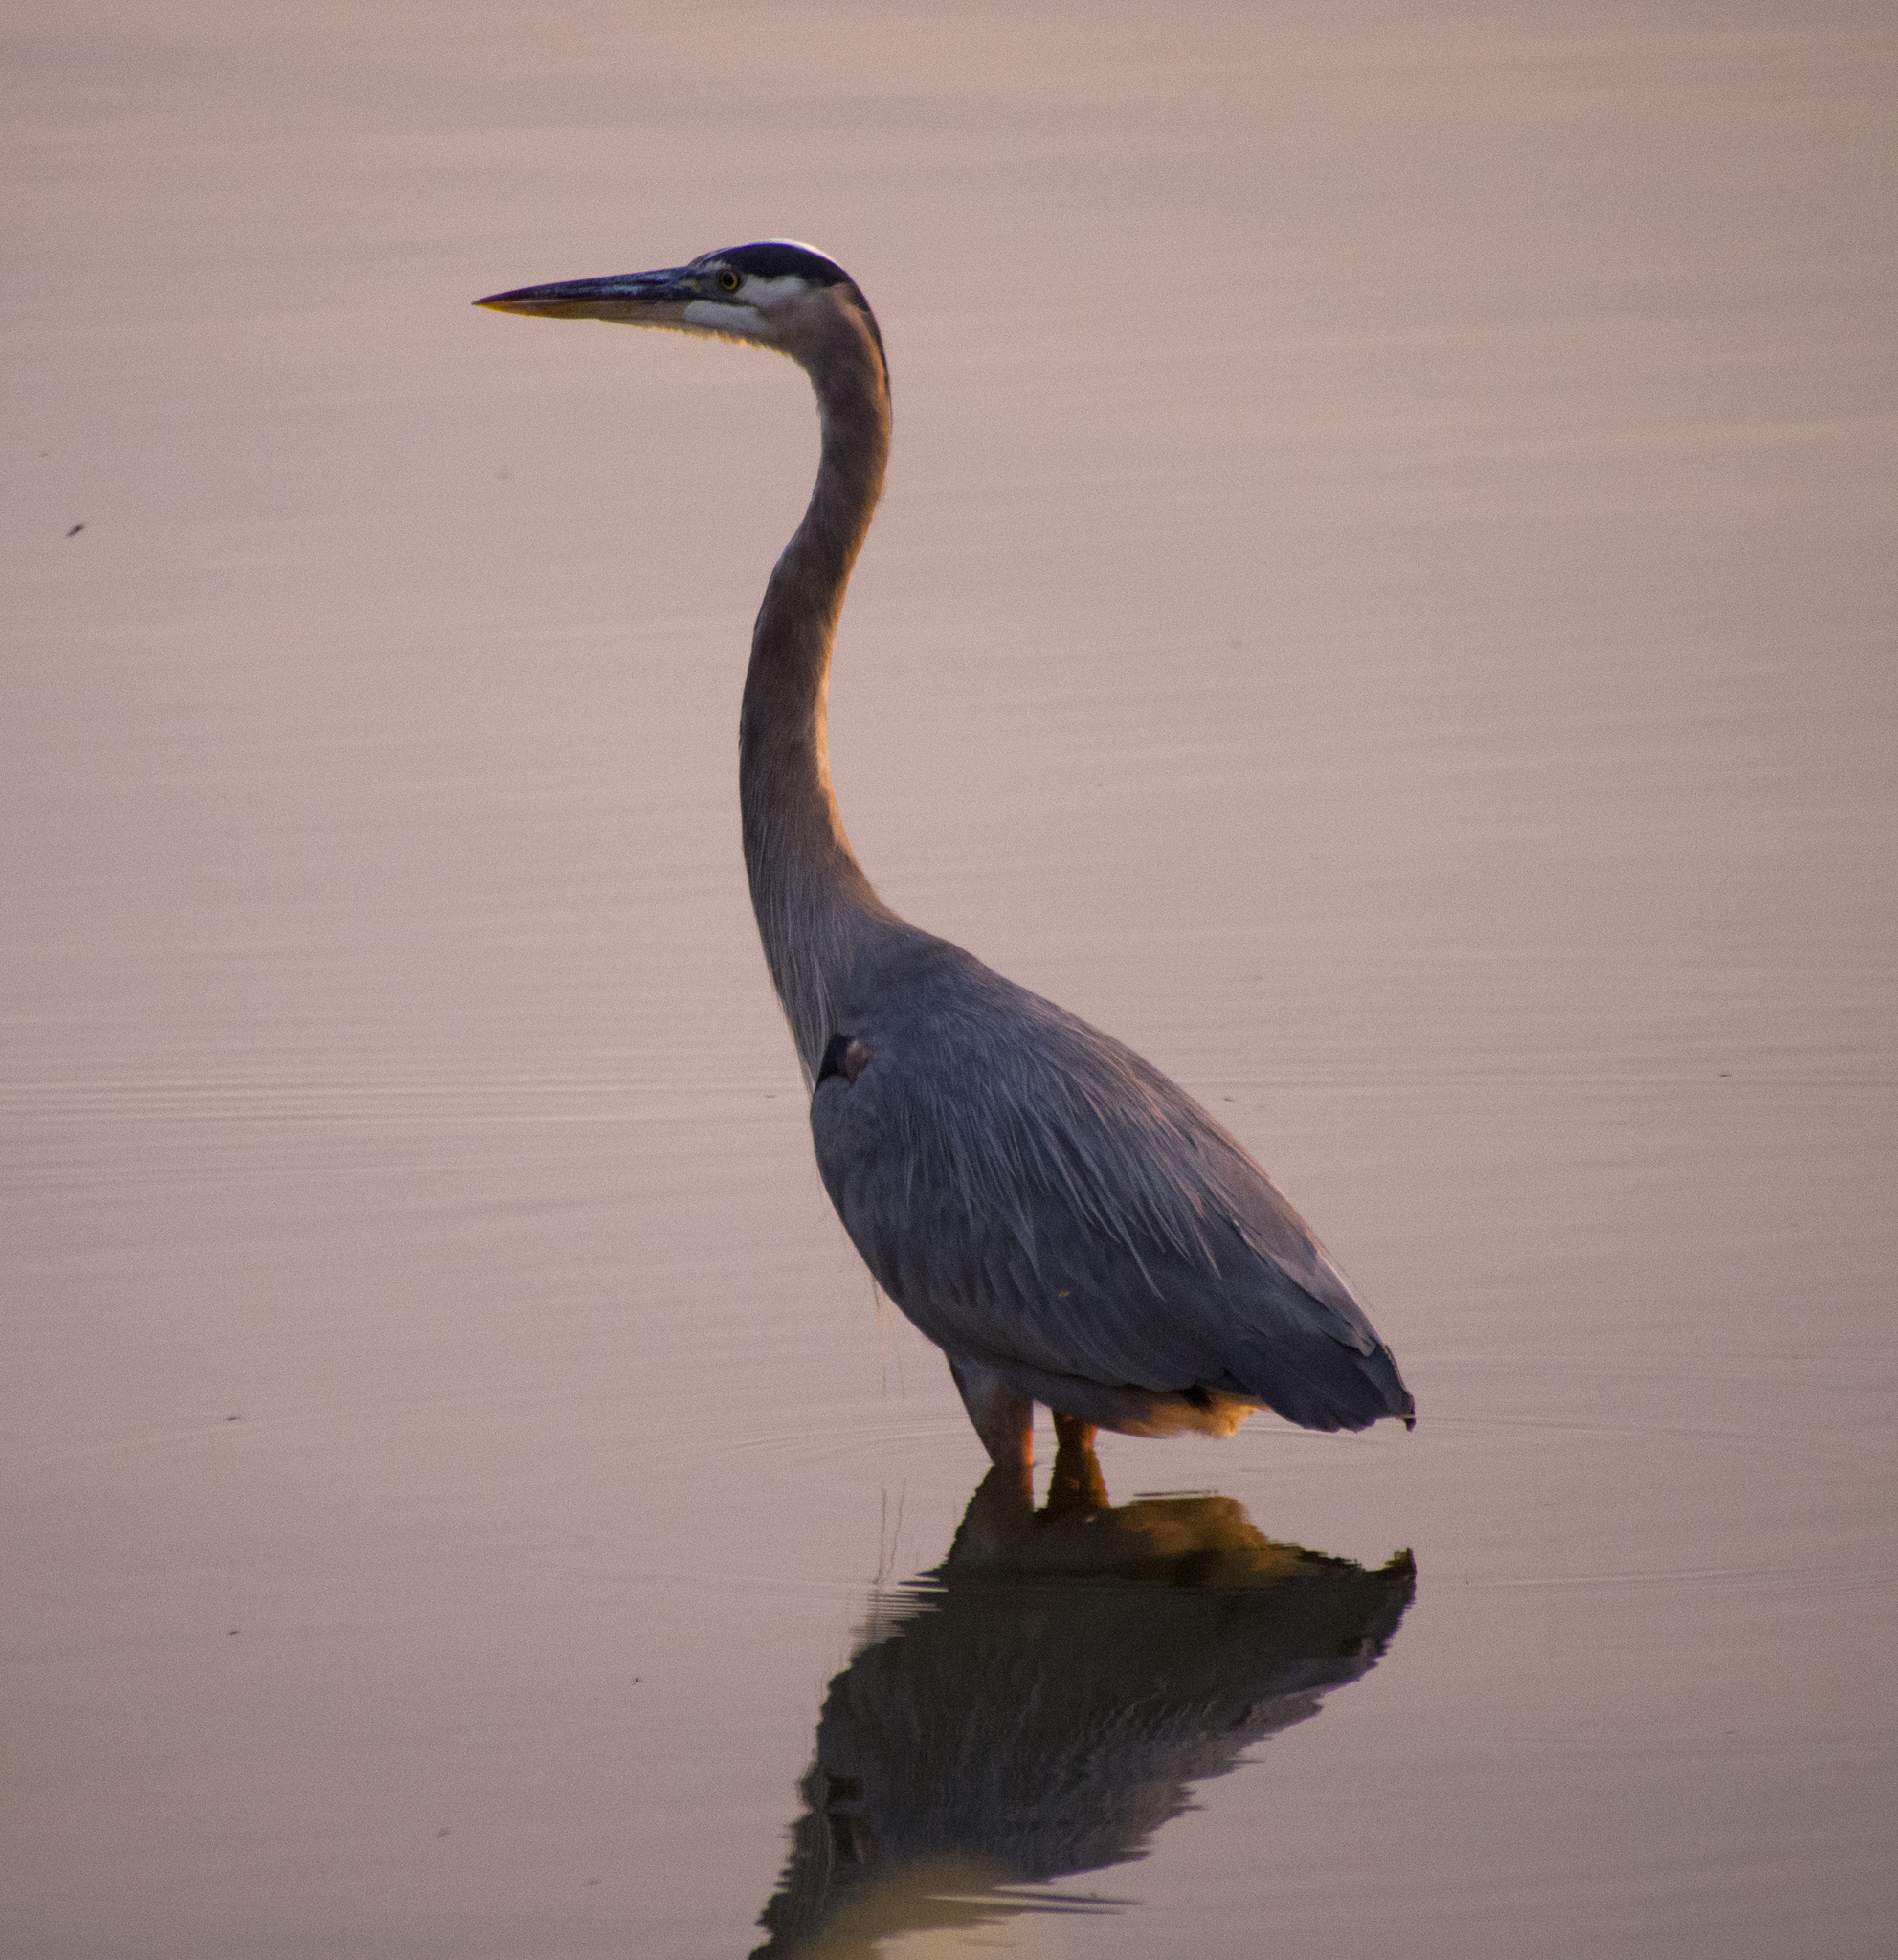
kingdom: Animalia
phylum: Chordata
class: Aves
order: Pelecaniformes
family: Ardeidae
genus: Ardea
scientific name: Ardea herodias
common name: Great blue heron
